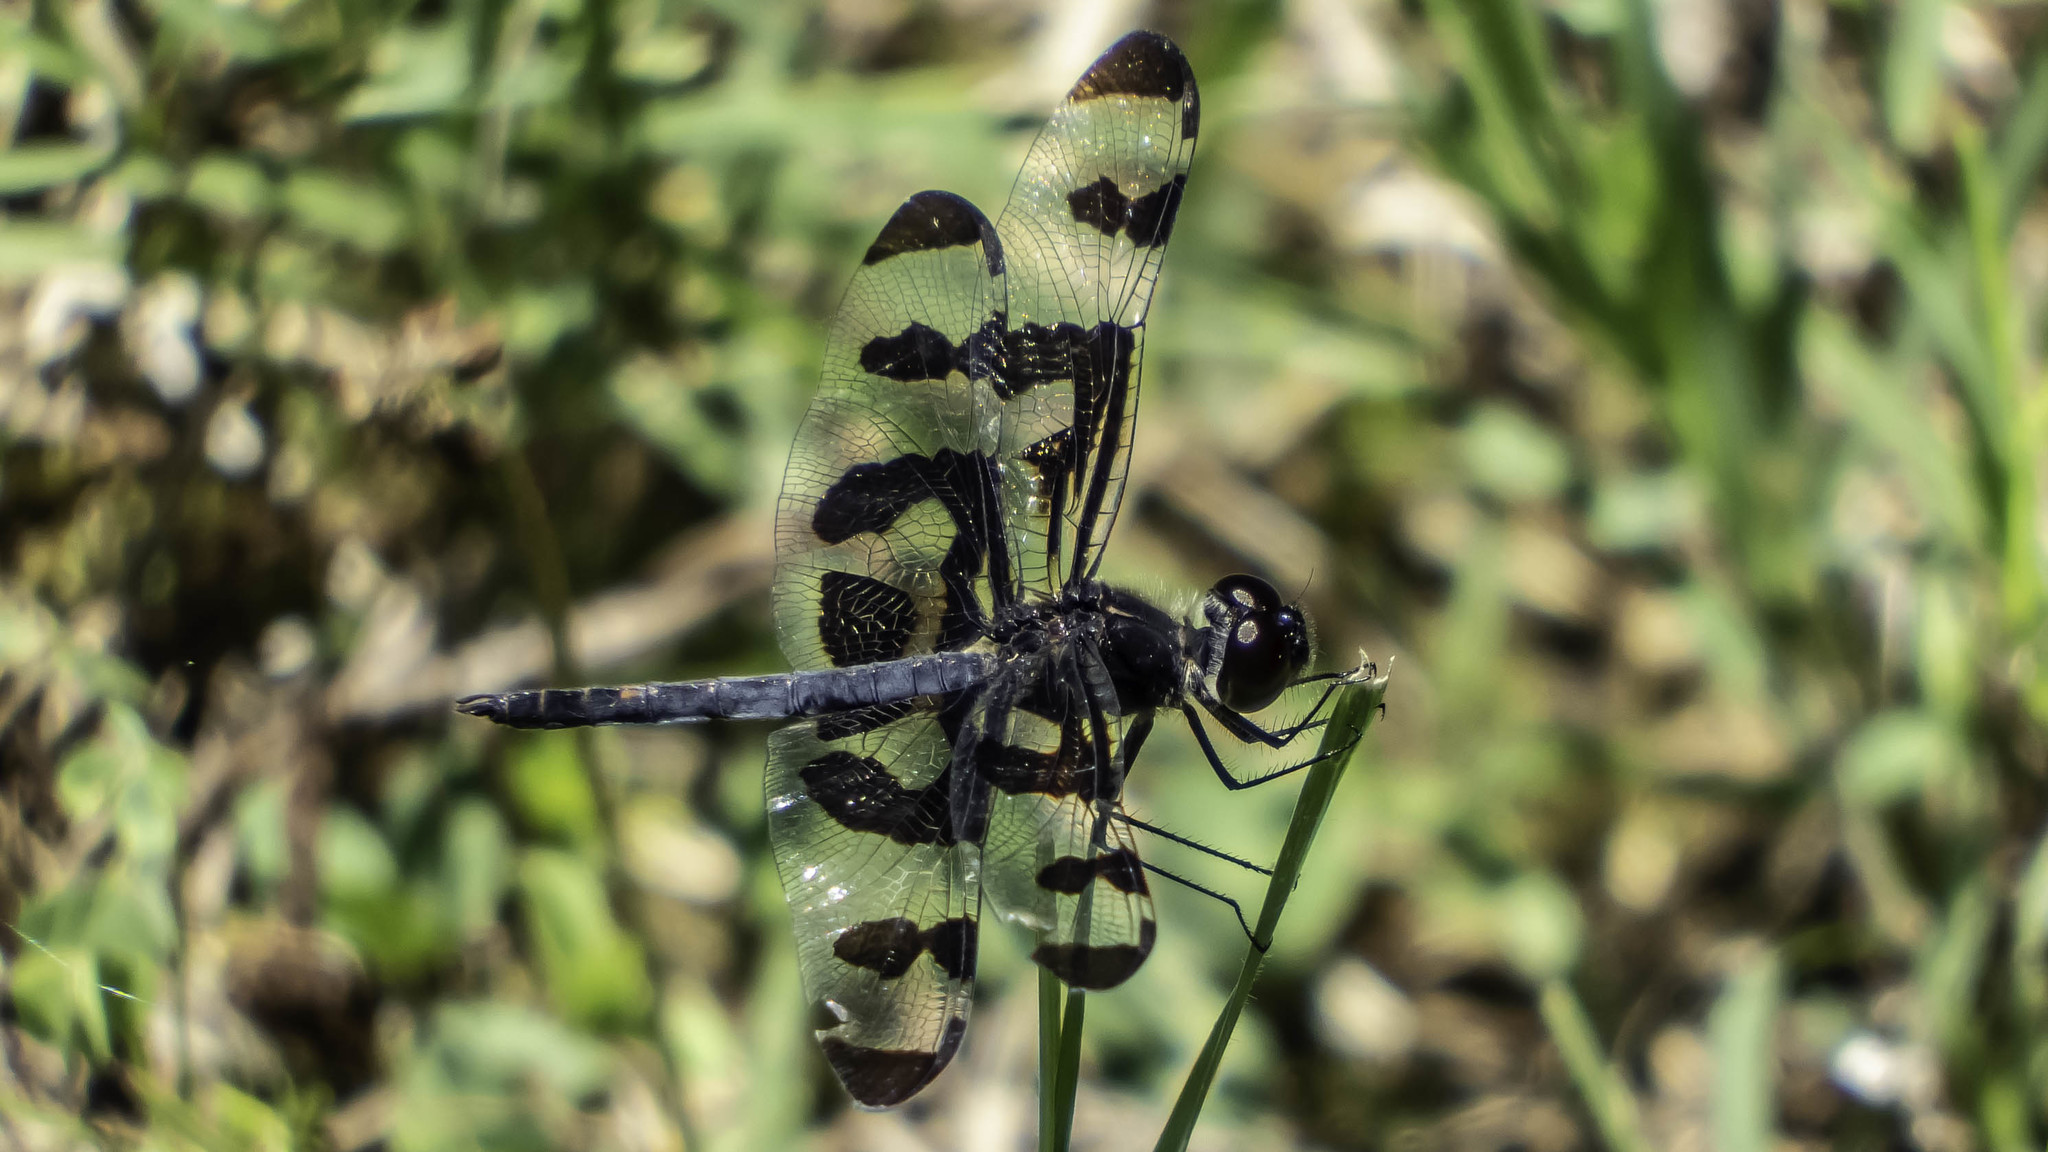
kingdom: Animalia
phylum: Arthropoda
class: Insecta
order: Odonata
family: Libellulidae
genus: Celithemis
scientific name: Celithemis fasciata
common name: Banded pennant
